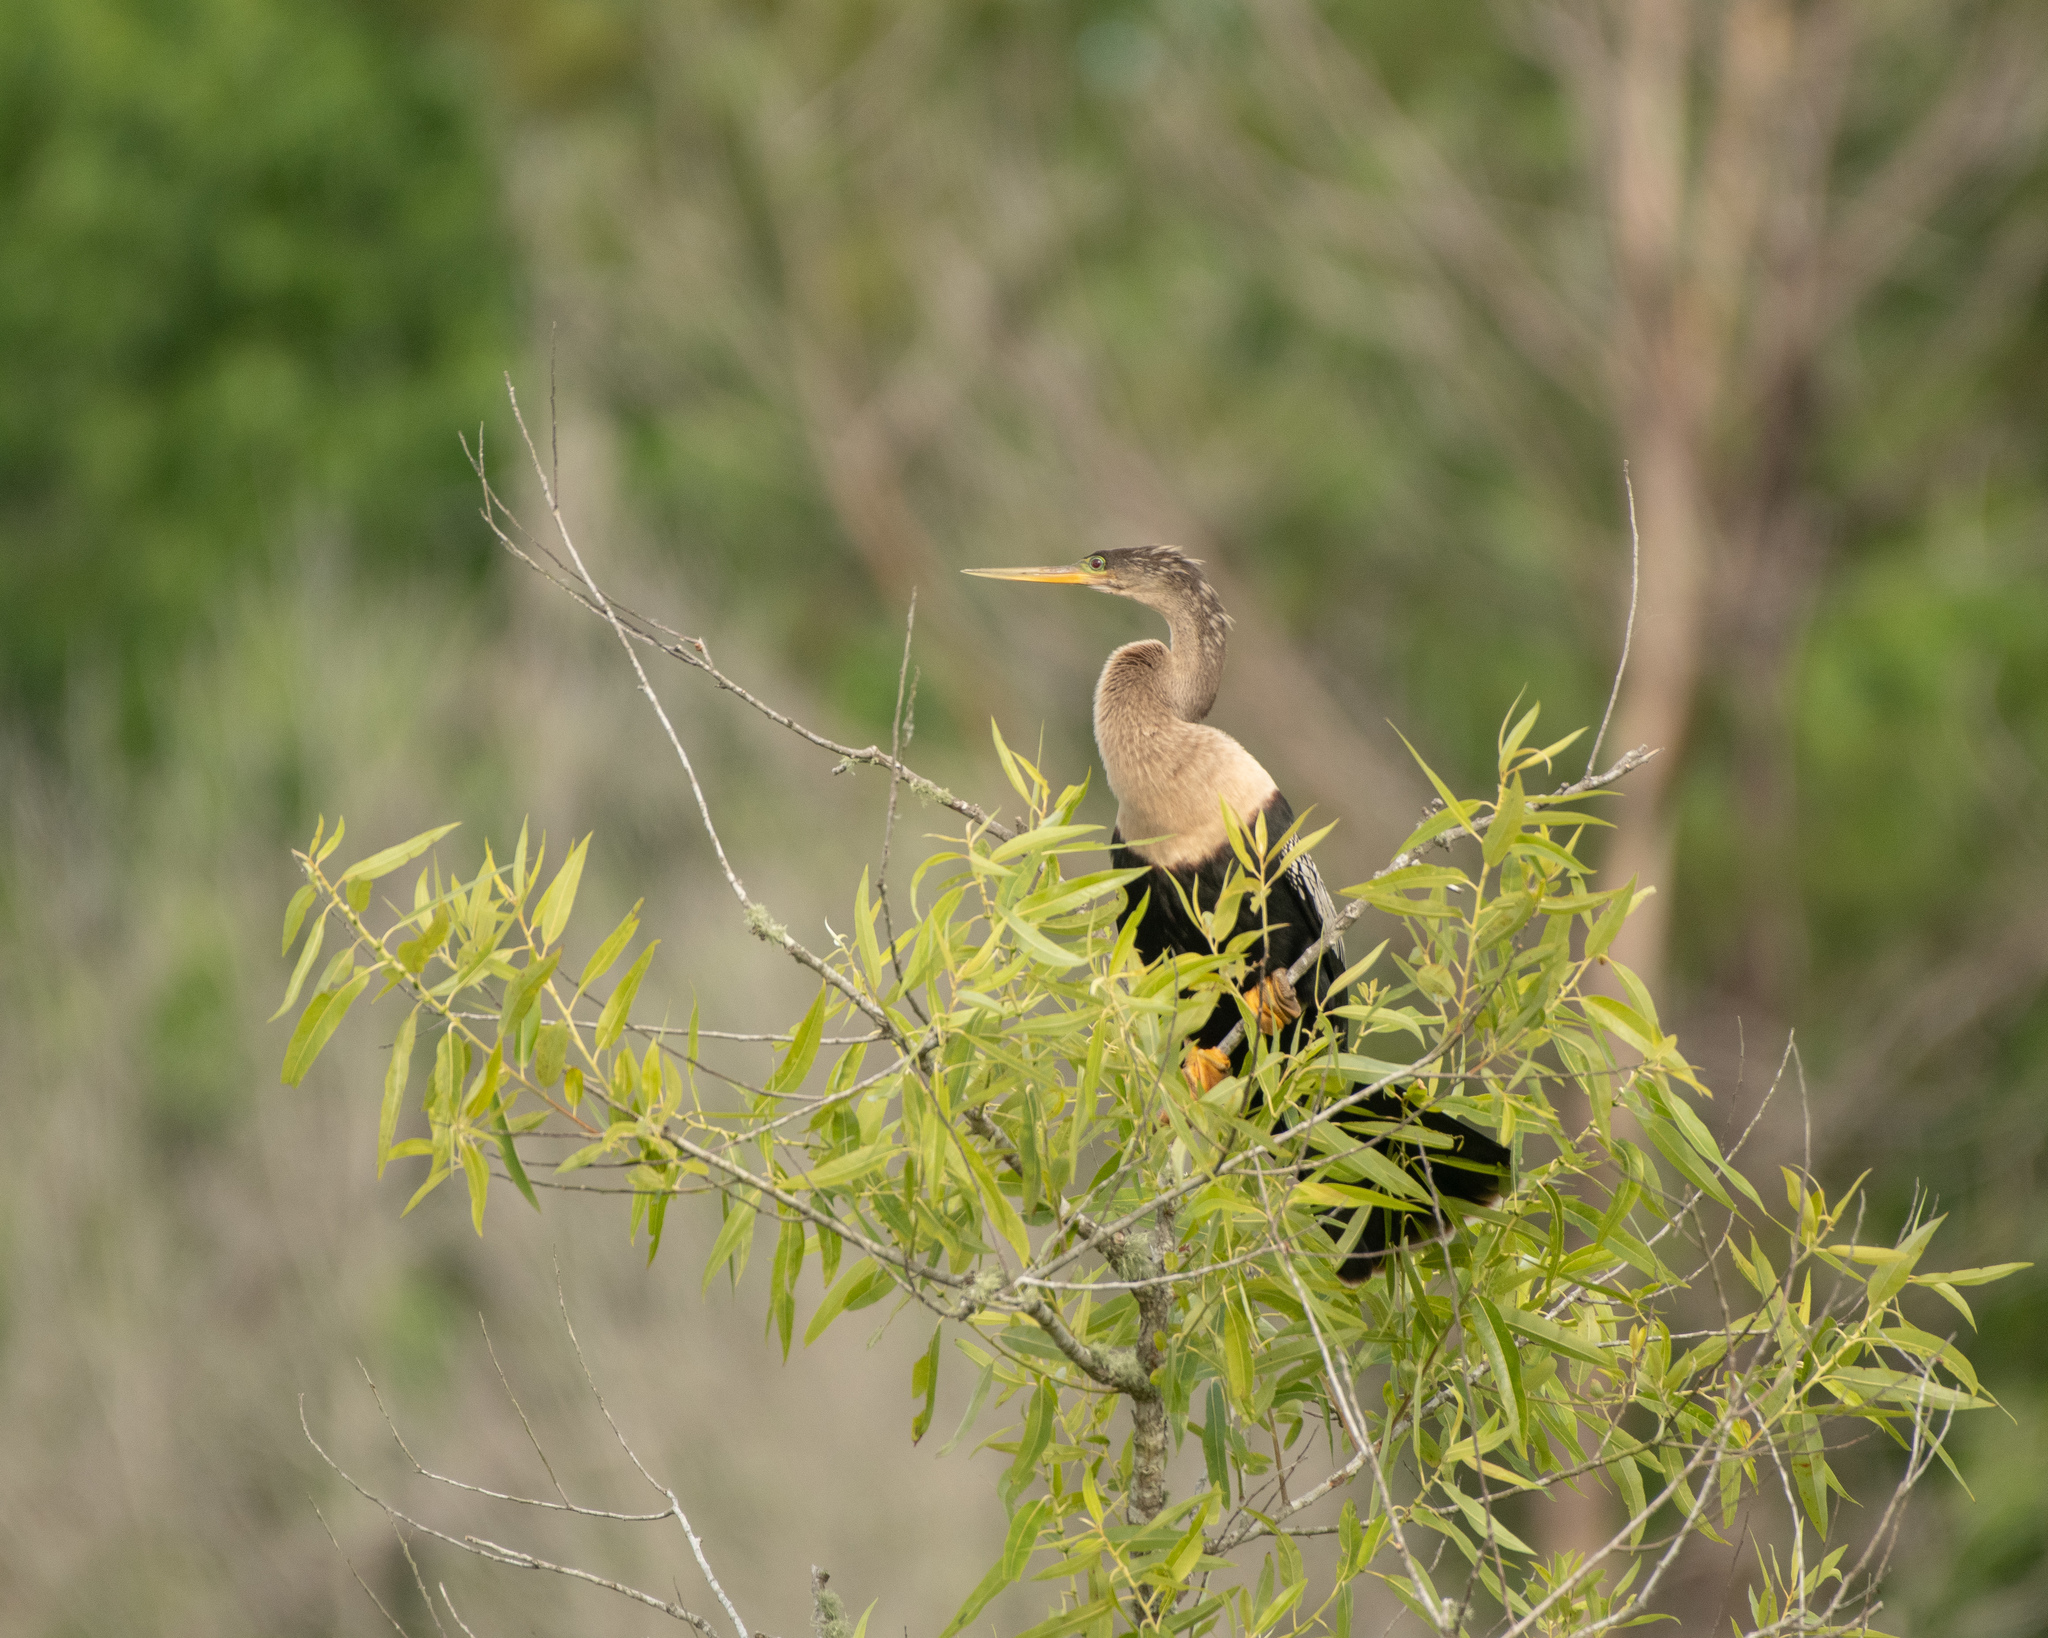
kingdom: Animalia
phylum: Chordata
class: Aves
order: Suliformes
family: Anhingidae
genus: Anhinga
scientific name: Anhinga anhinga
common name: Anhinga
